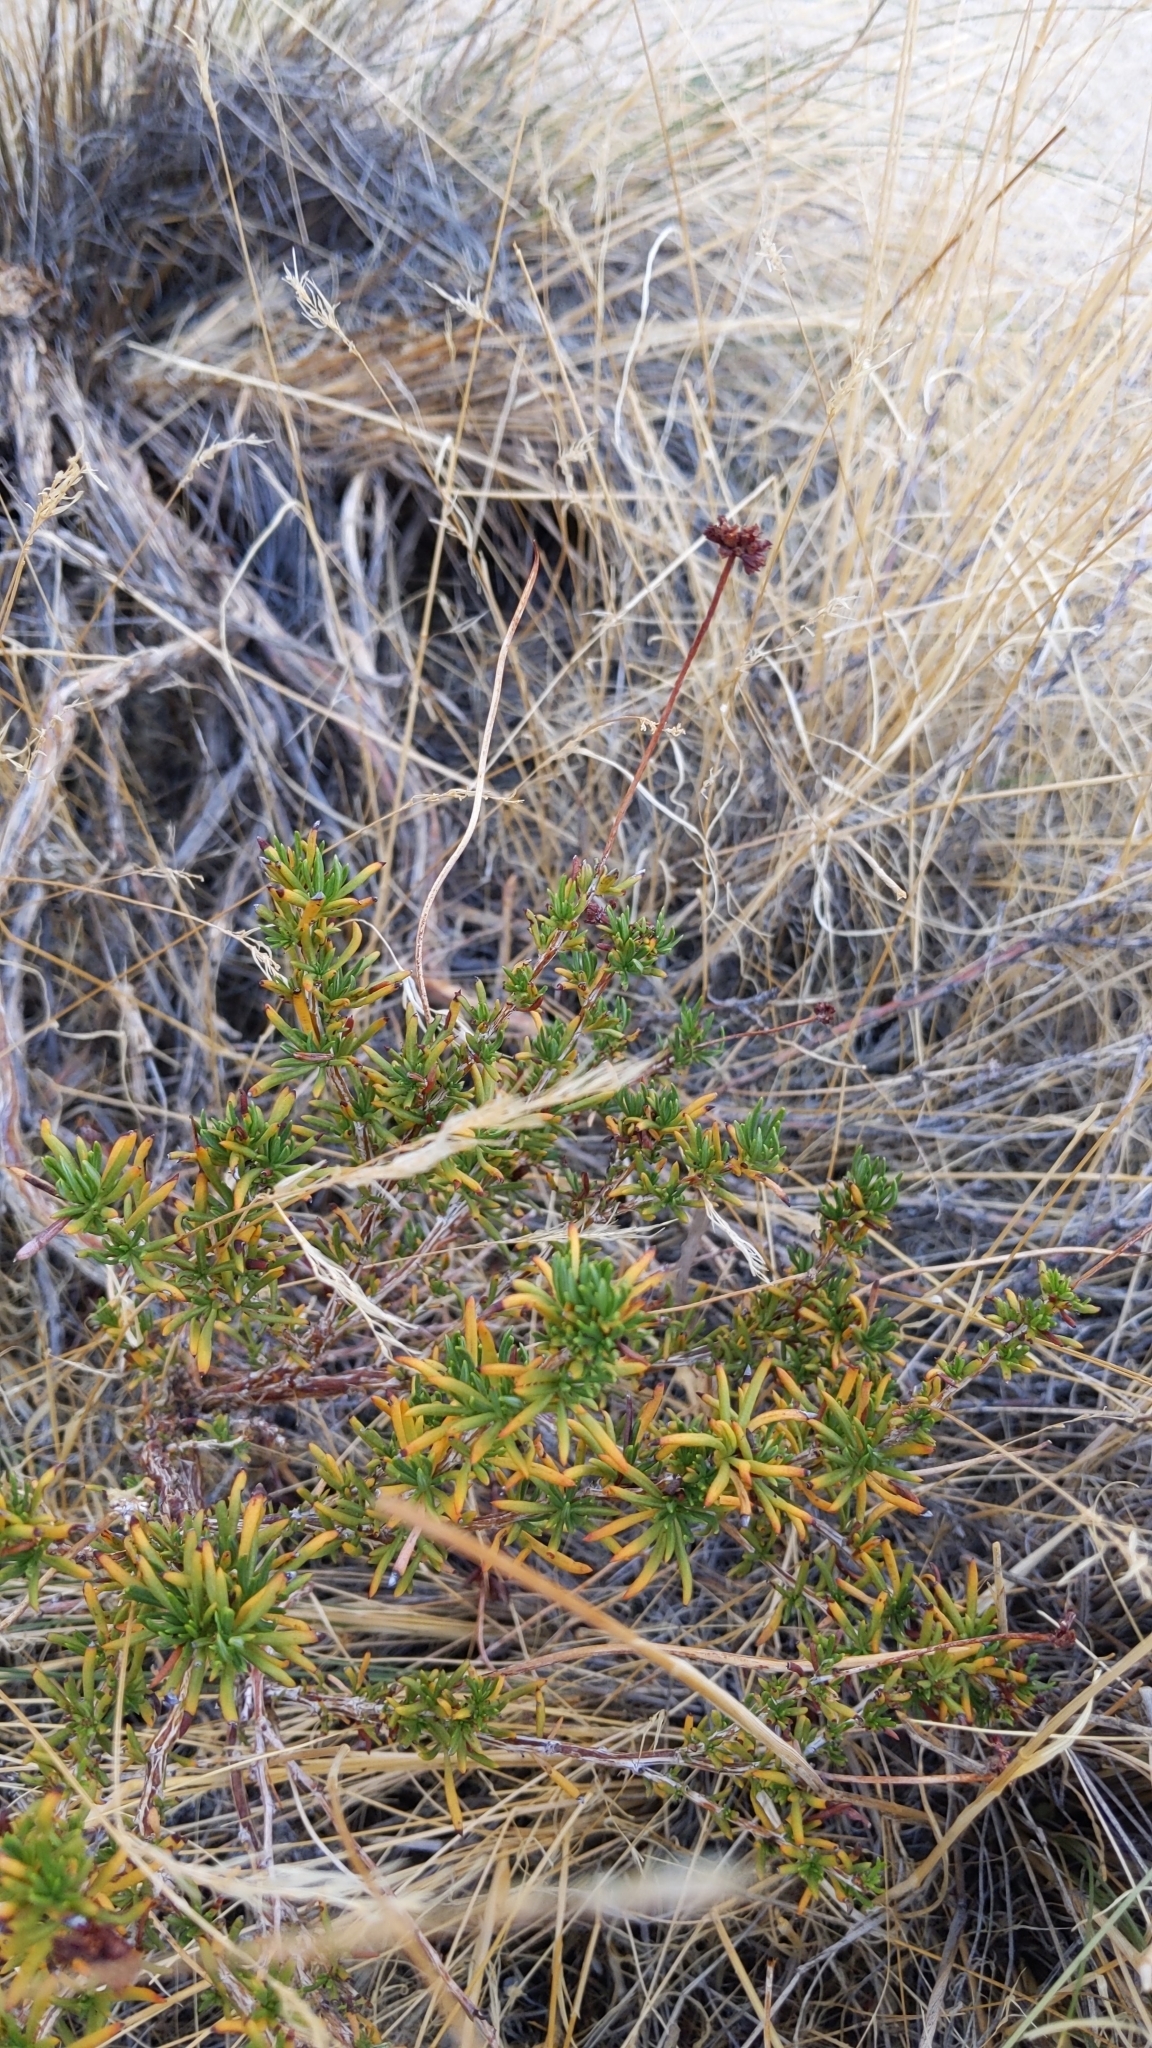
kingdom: Plantae
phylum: Tracheophyta
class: Magnoliopsida
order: Caryophyllales
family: Polygonaceae
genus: Eriogonum
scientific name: Eriogonum fasciculatum
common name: California wild buckwheat
